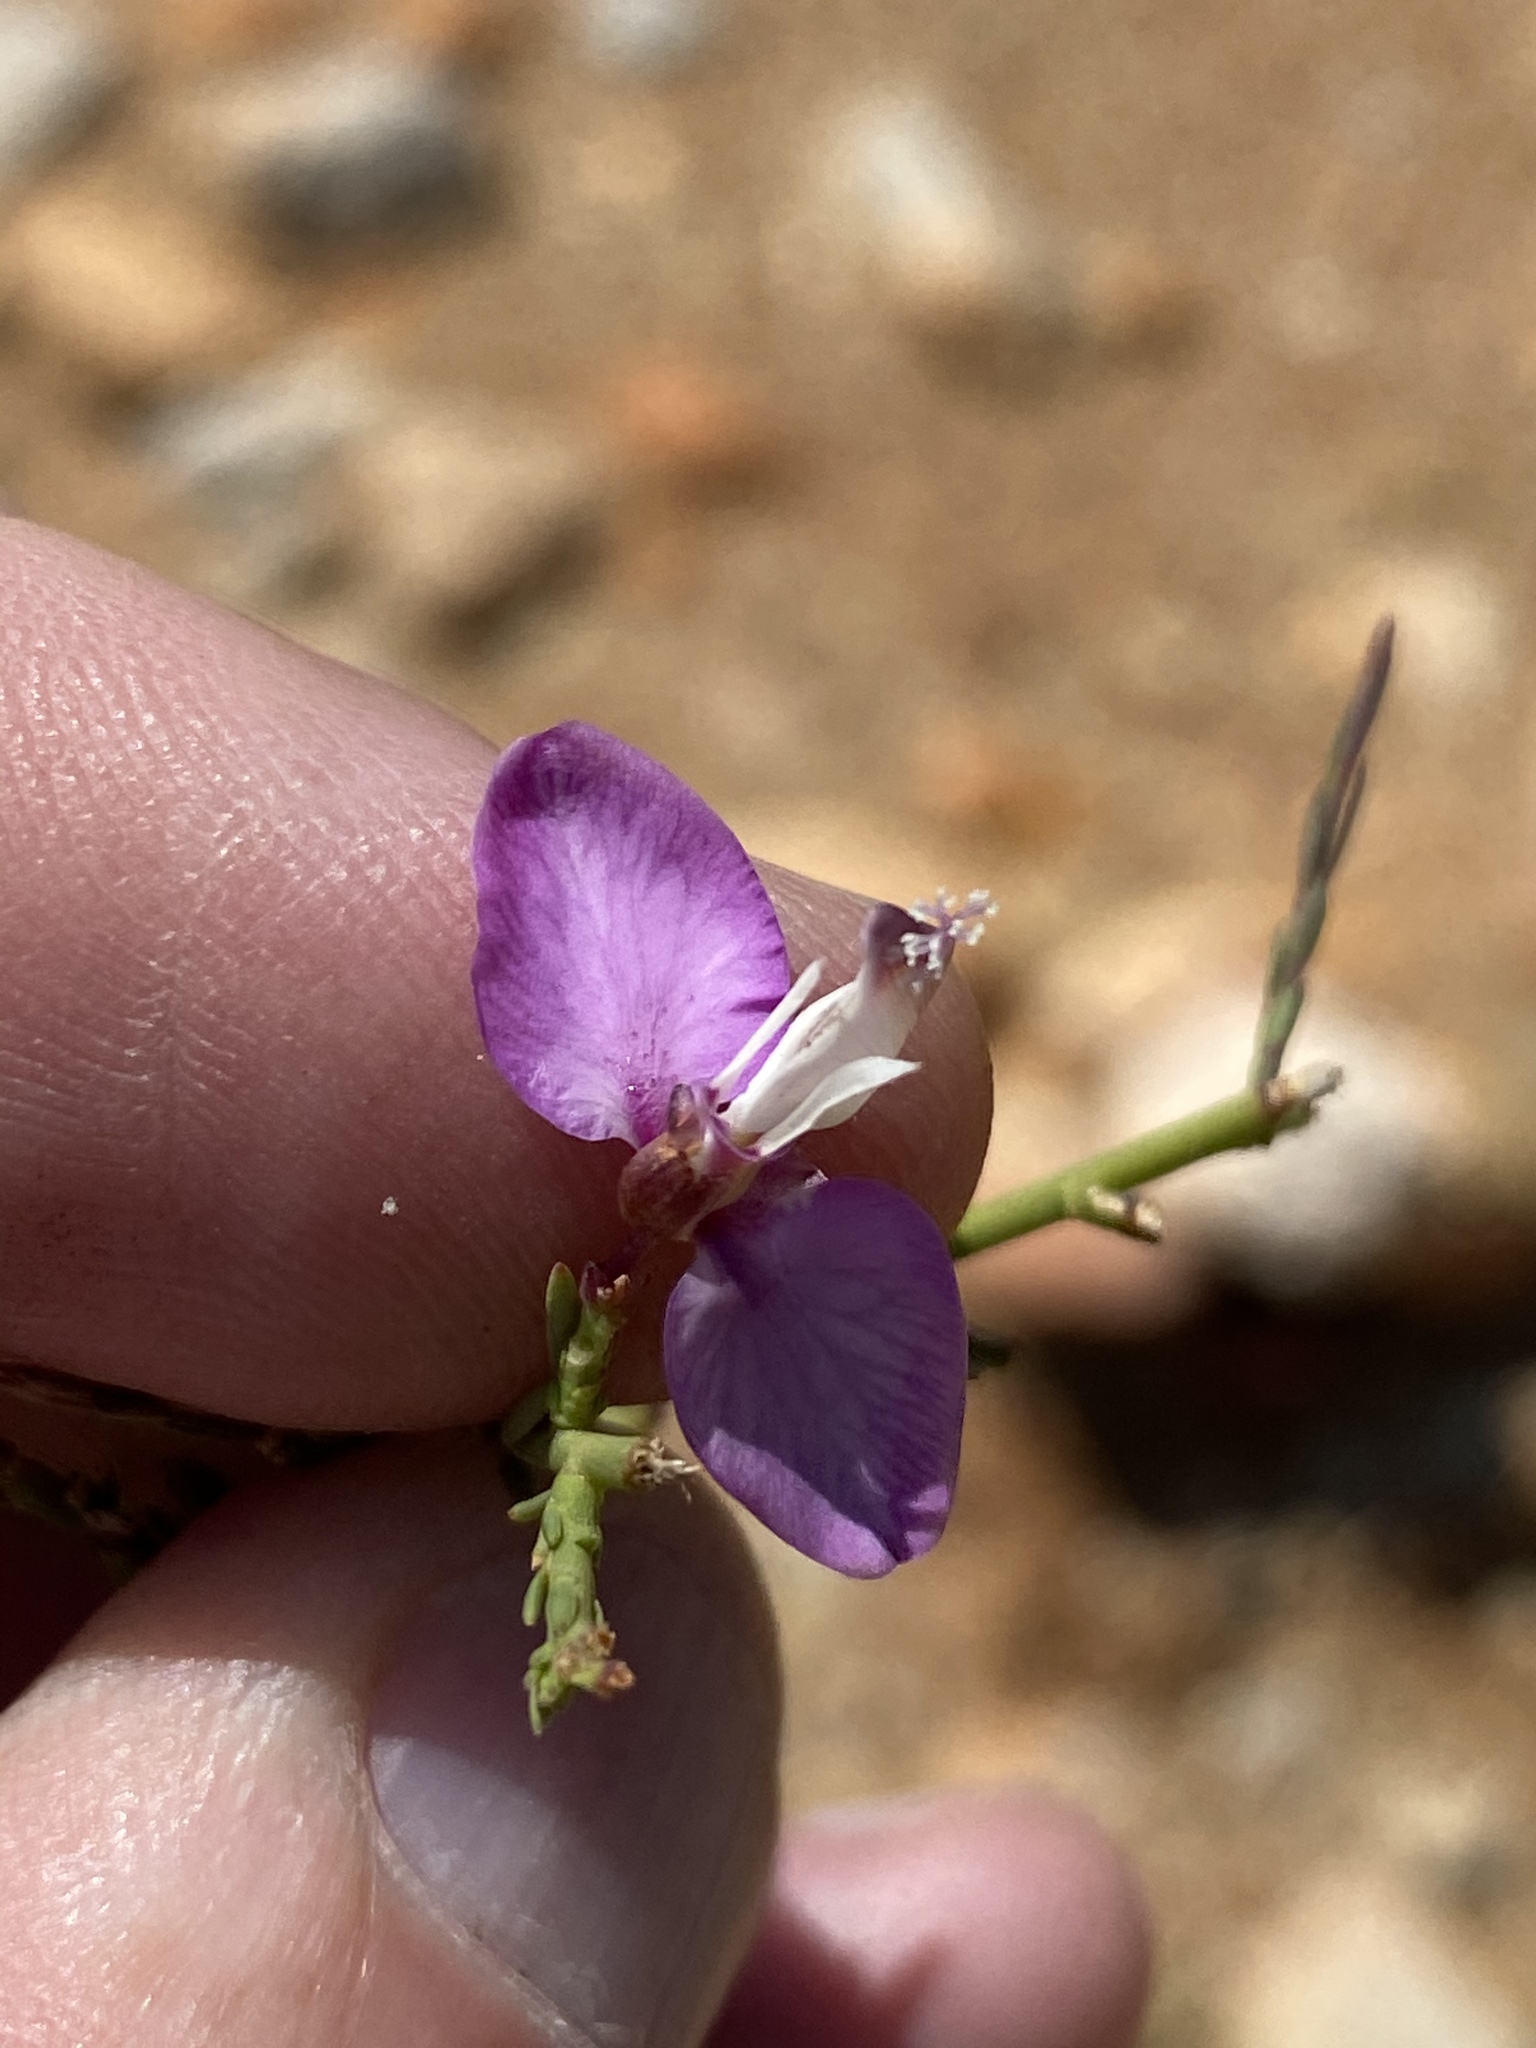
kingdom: Plantae
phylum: Tracheophyta
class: Magnoliopsida
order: Fabales
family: Polygalaceae
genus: Polygala
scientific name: Polygala microlopha
